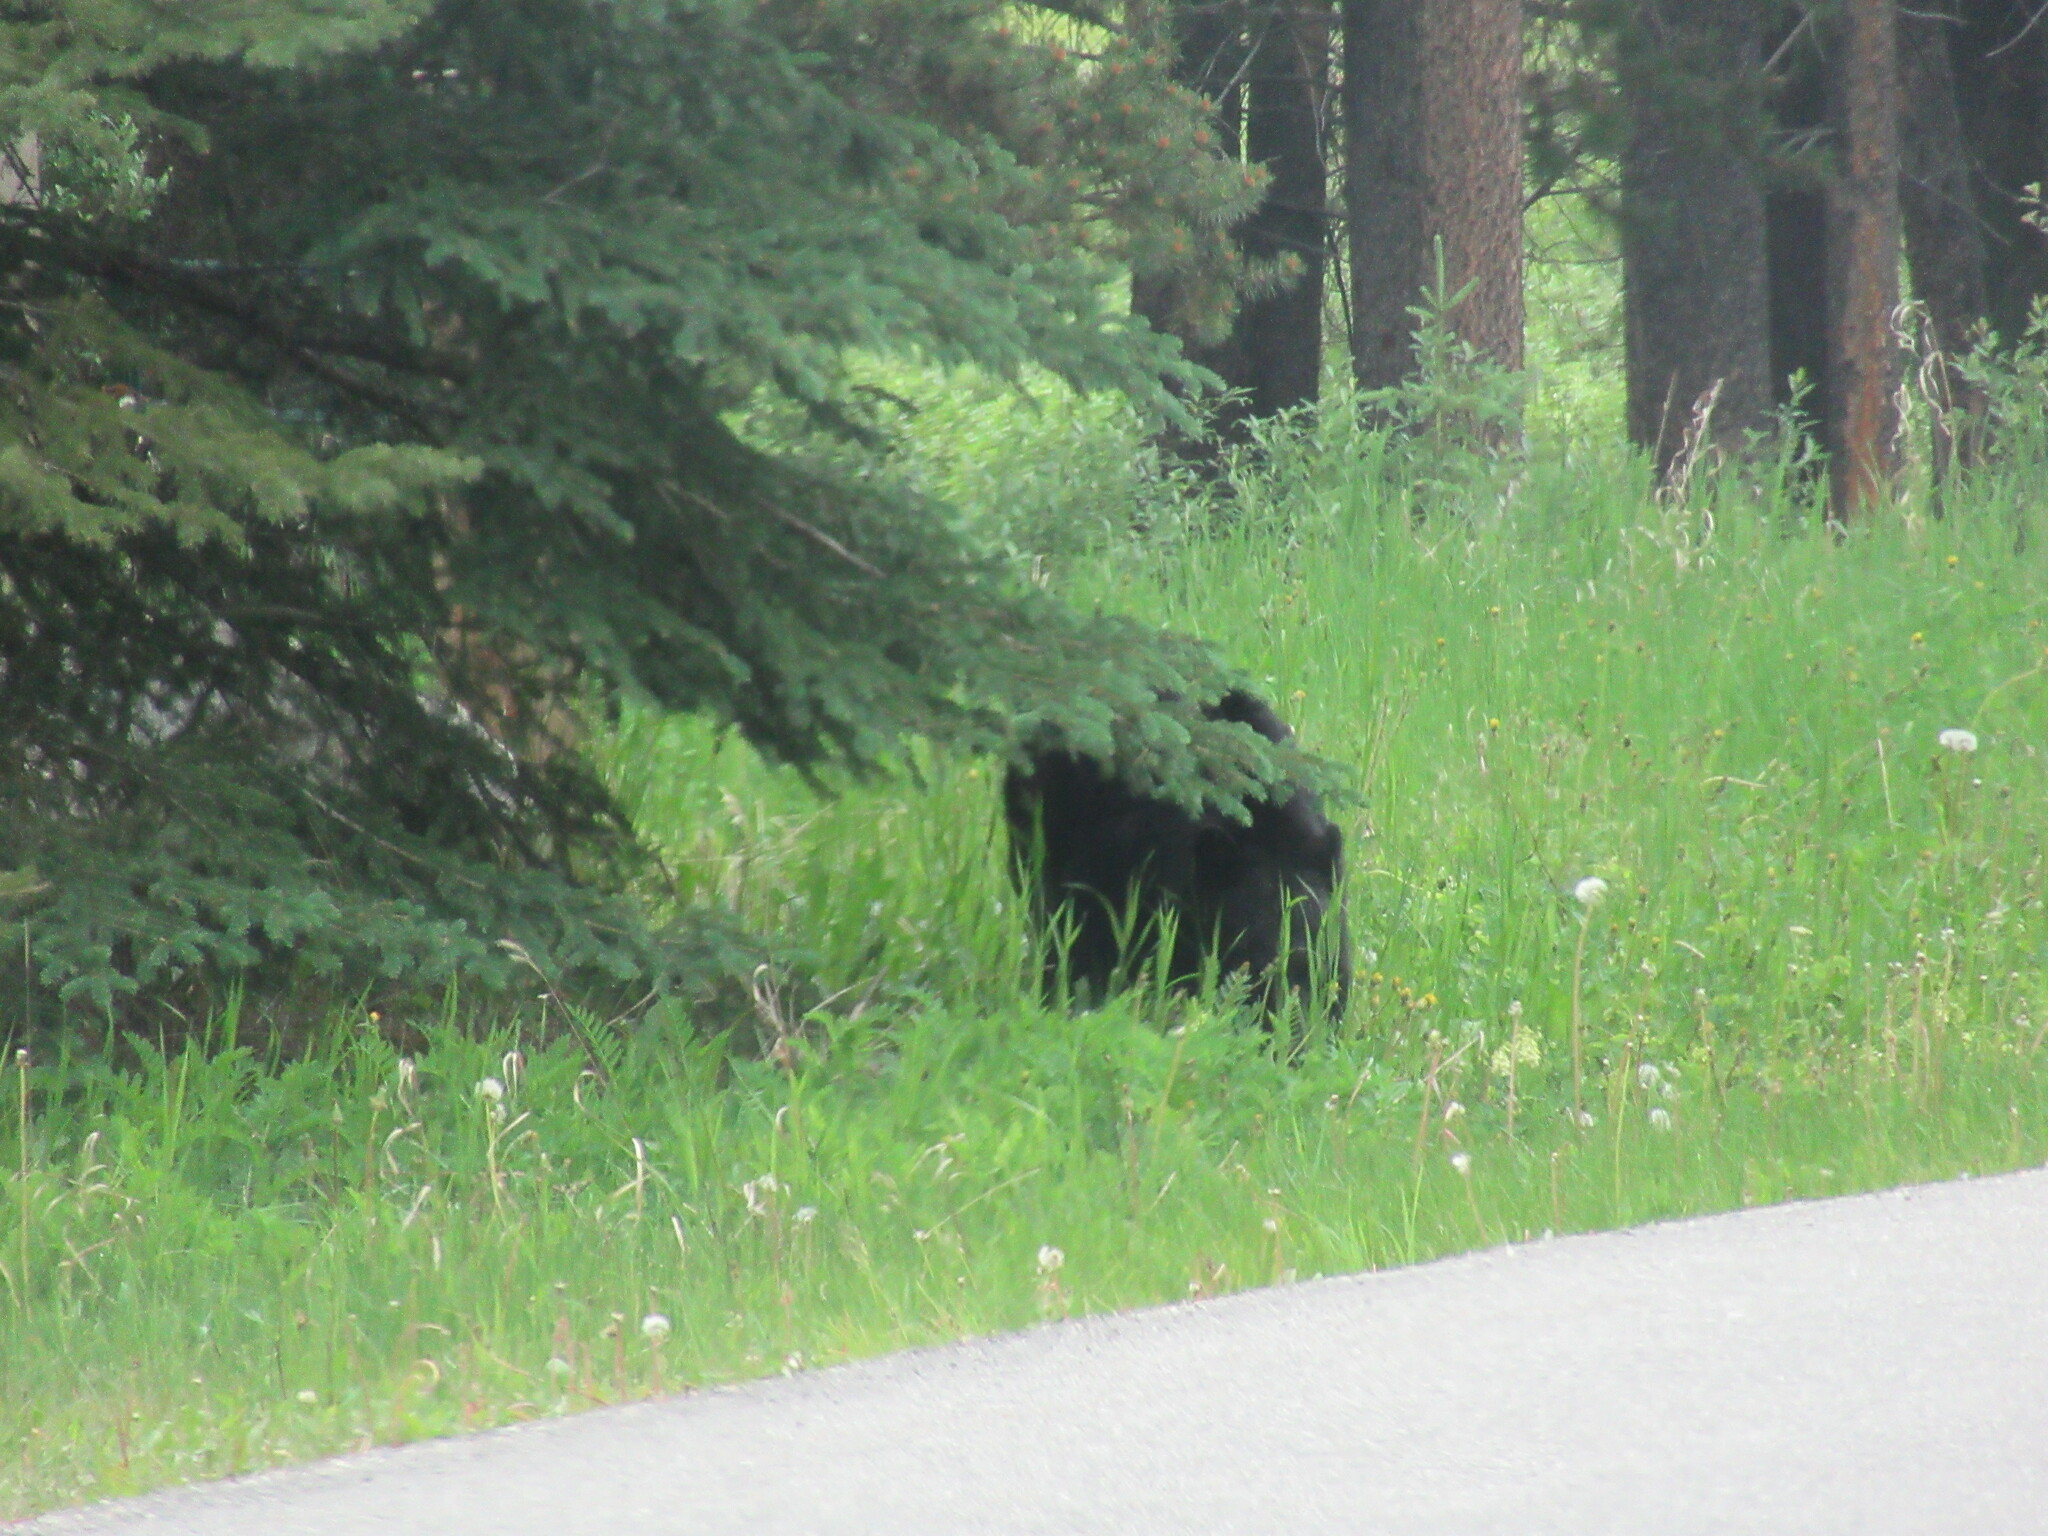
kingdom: Animalia
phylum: Chordata
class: Mammalia
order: Carnivora
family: Ursidae
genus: Ursus
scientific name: Ursus americanus
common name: American black bear
